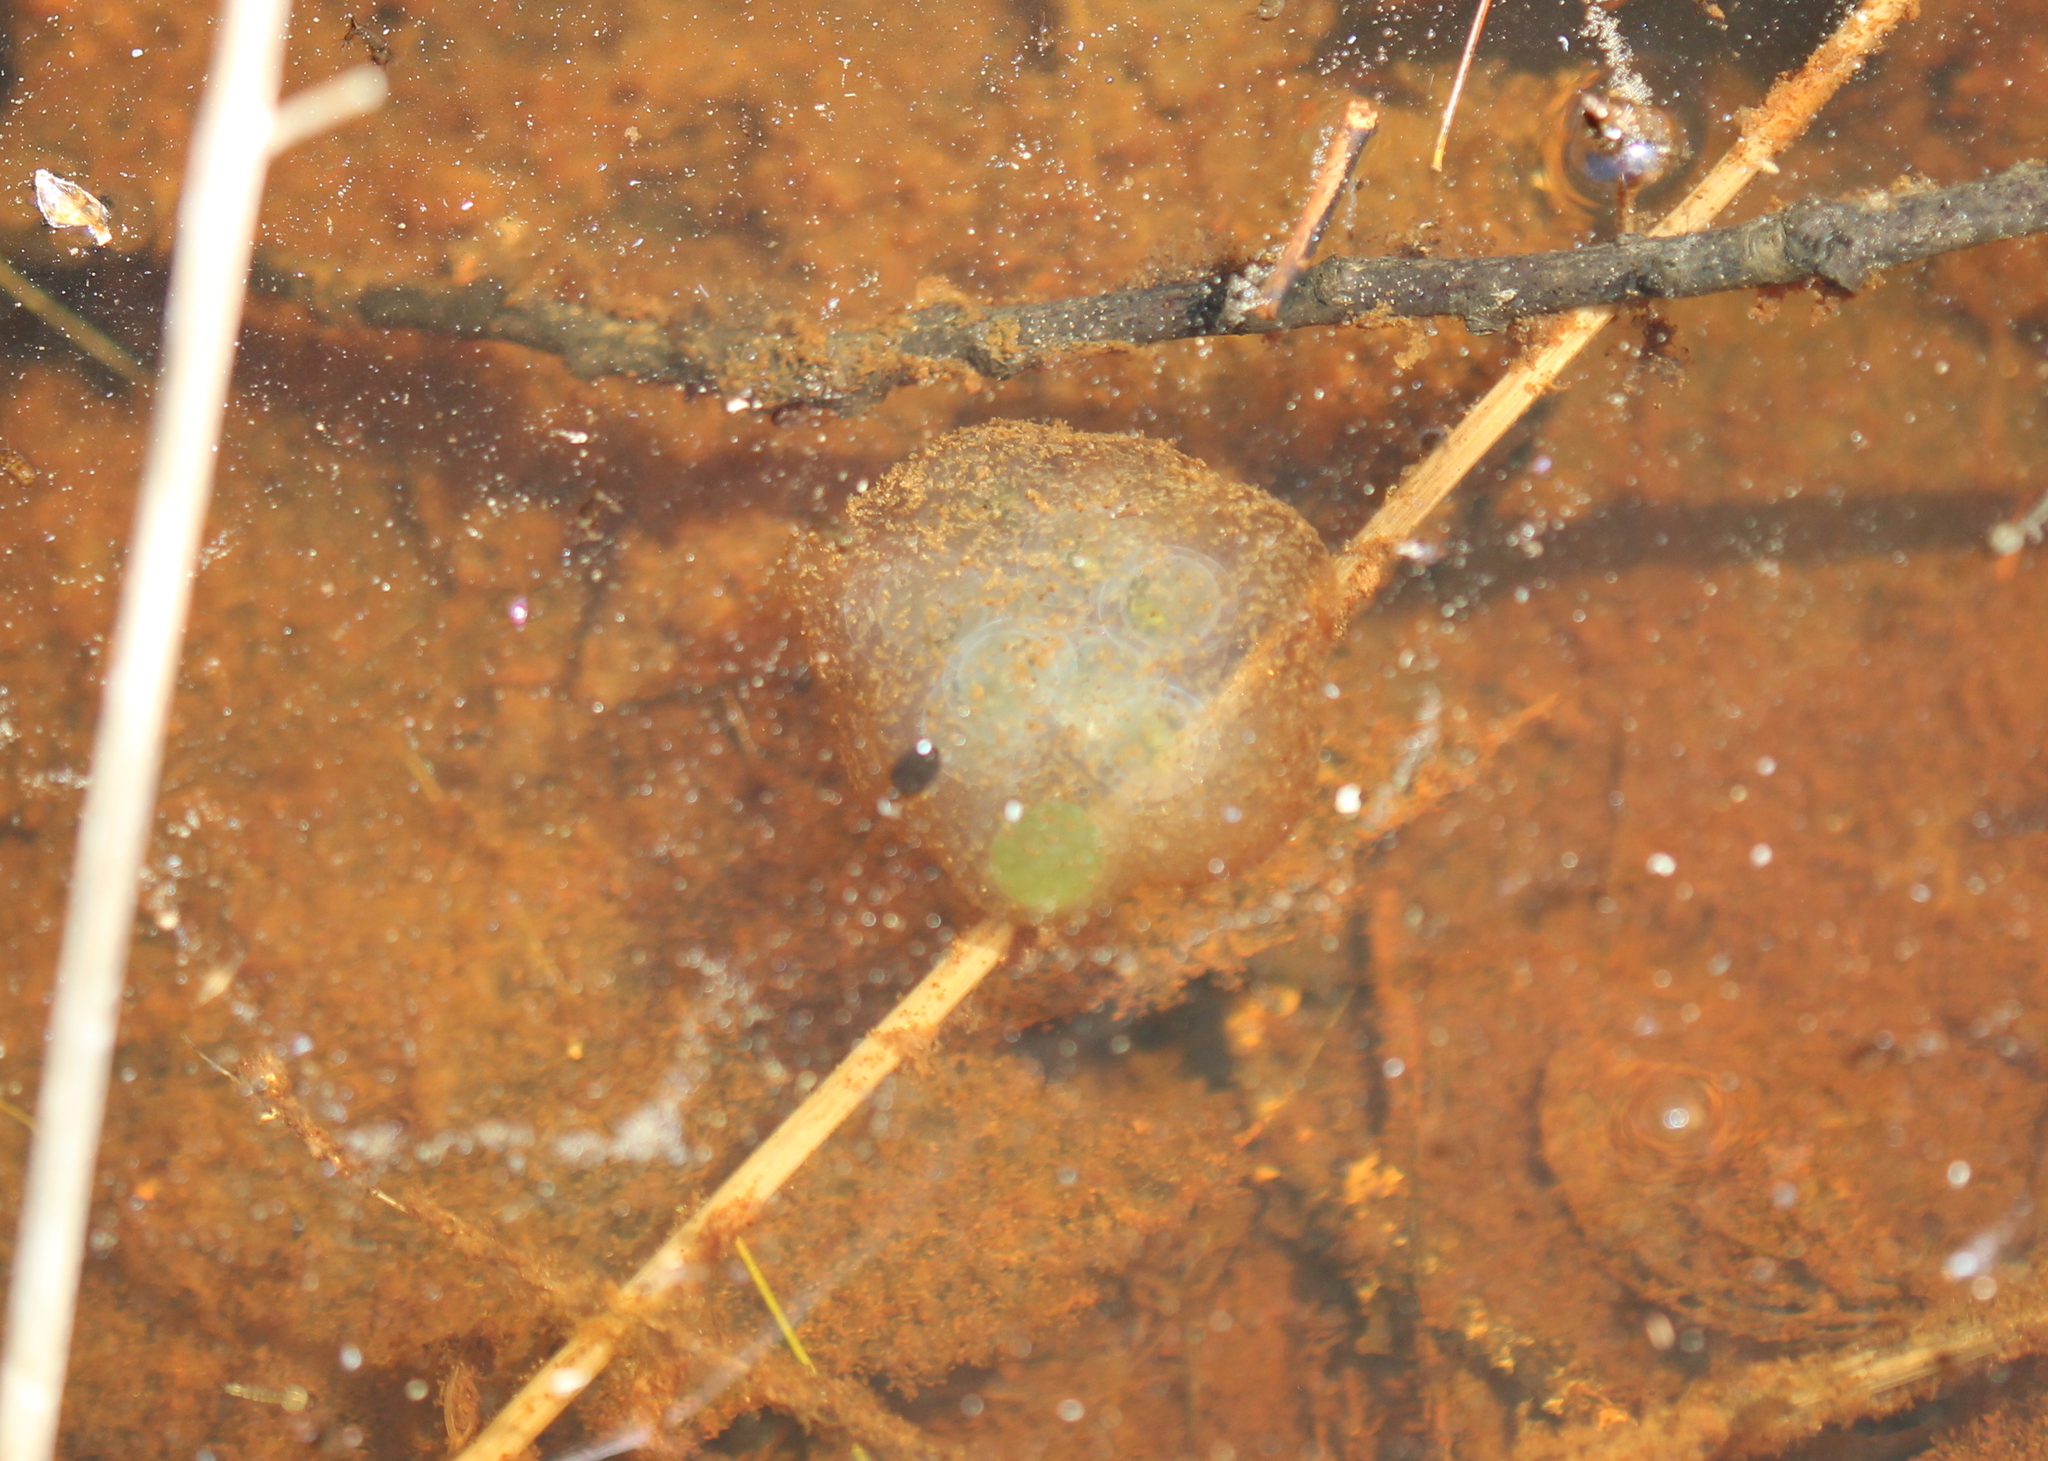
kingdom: Animalia
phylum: Chordata
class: Amphibia
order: Caudata
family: Ambystomatidae
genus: Ambystoma
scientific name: Ambystoma maculatum
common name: Spotted salamander
